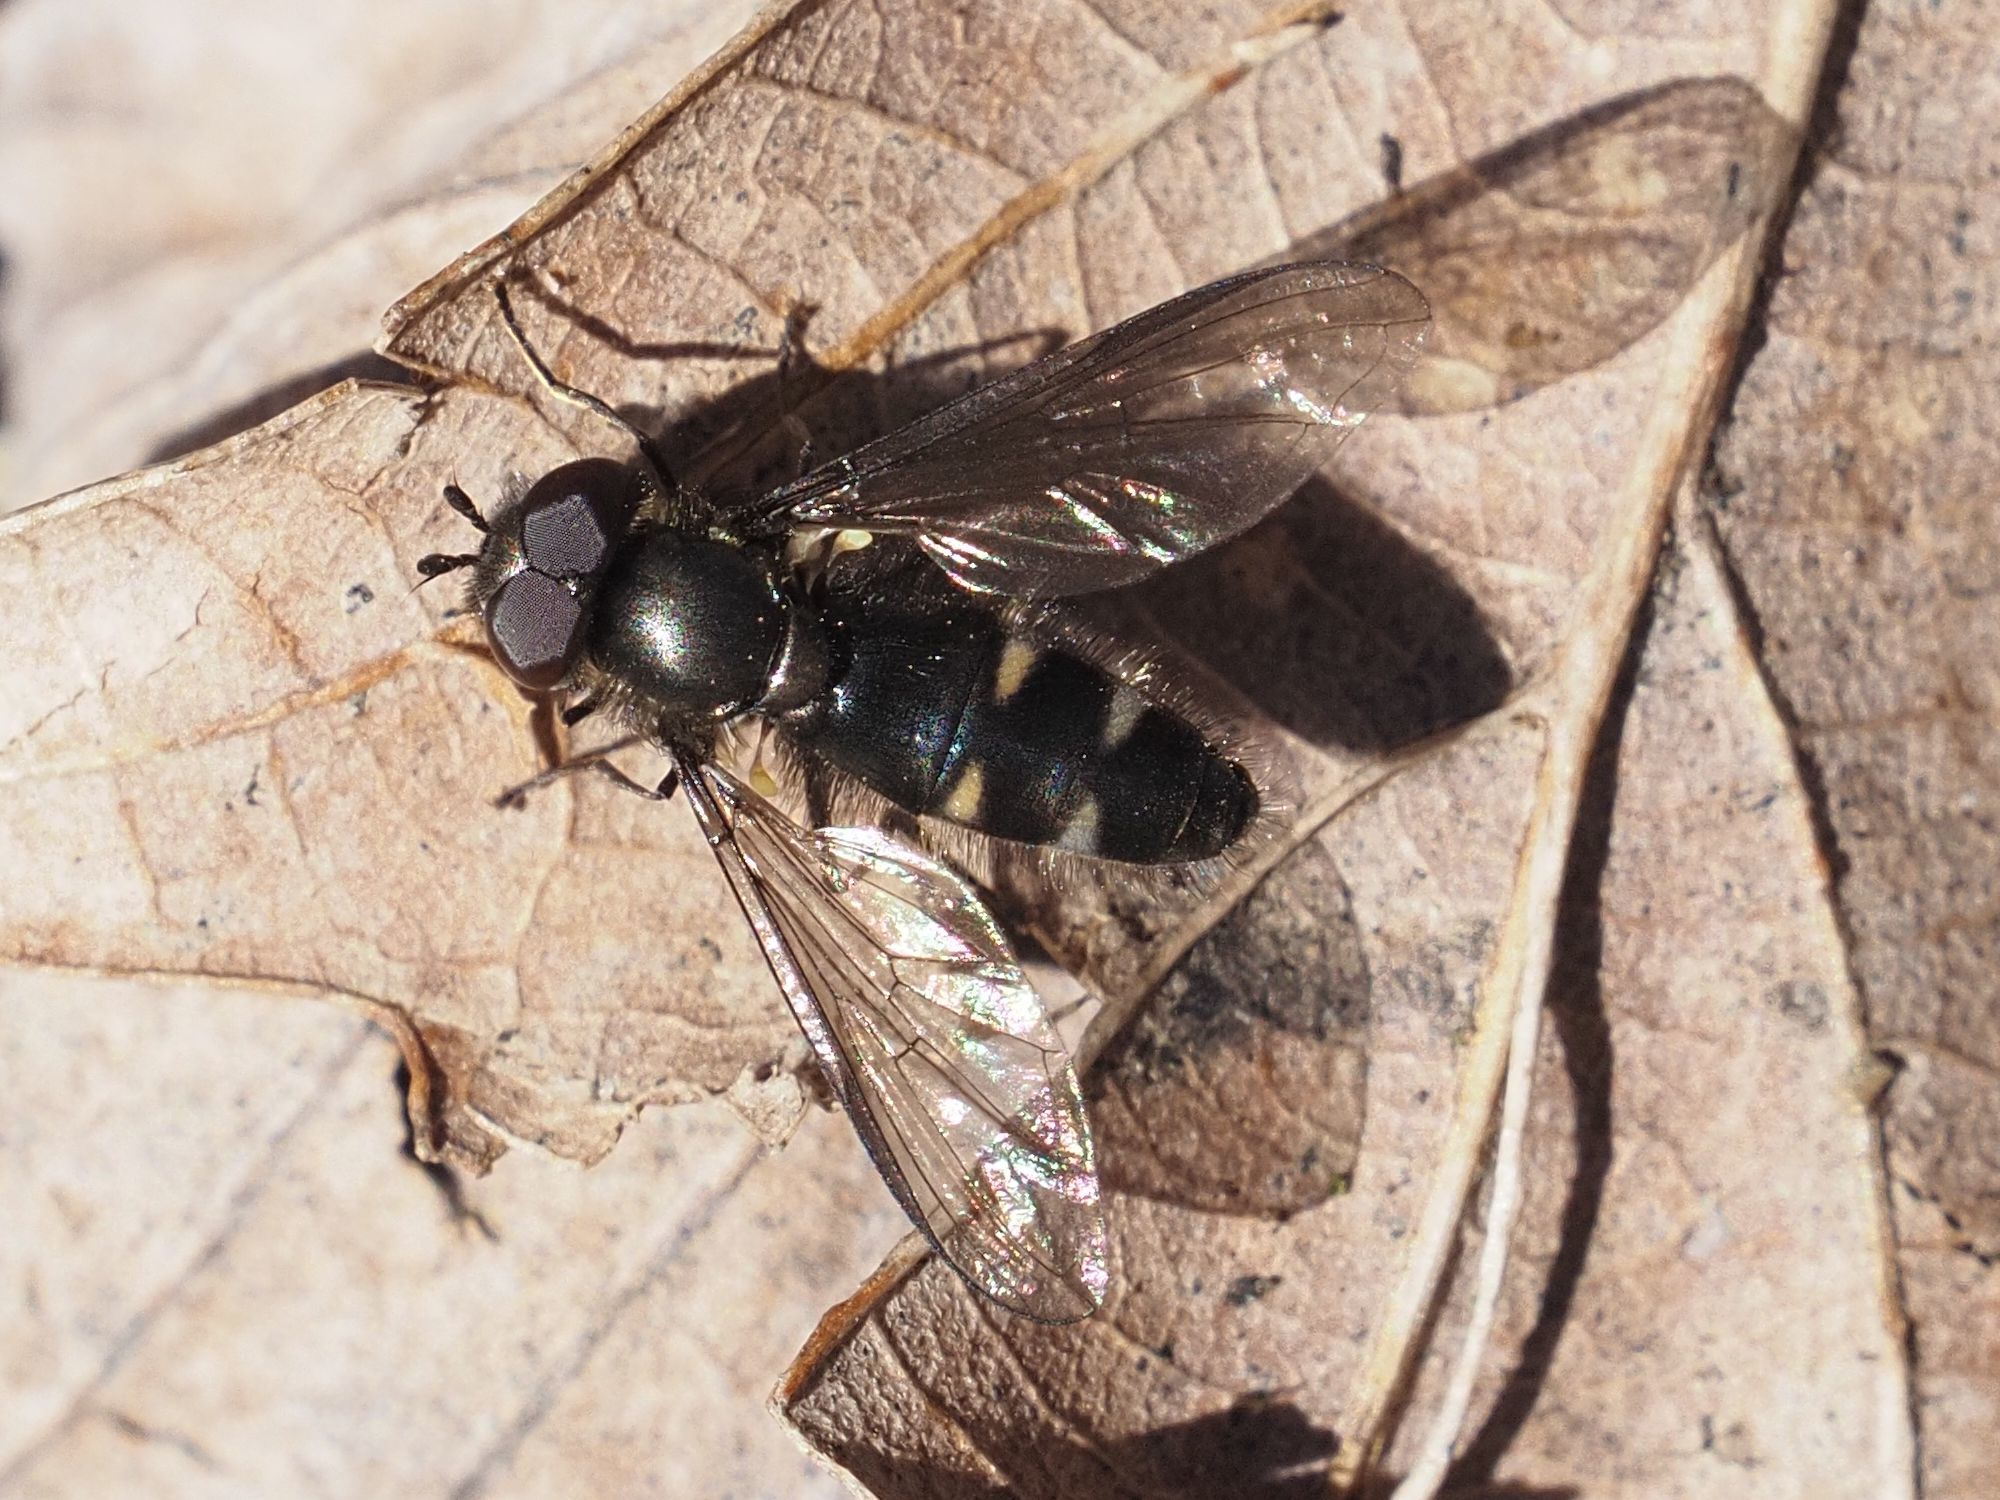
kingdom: Animalia
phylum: Arthropoda
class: Insecta
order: Diptera
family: Syrphidae
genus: Melangyna
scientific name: Melangyna quadrimaculata
